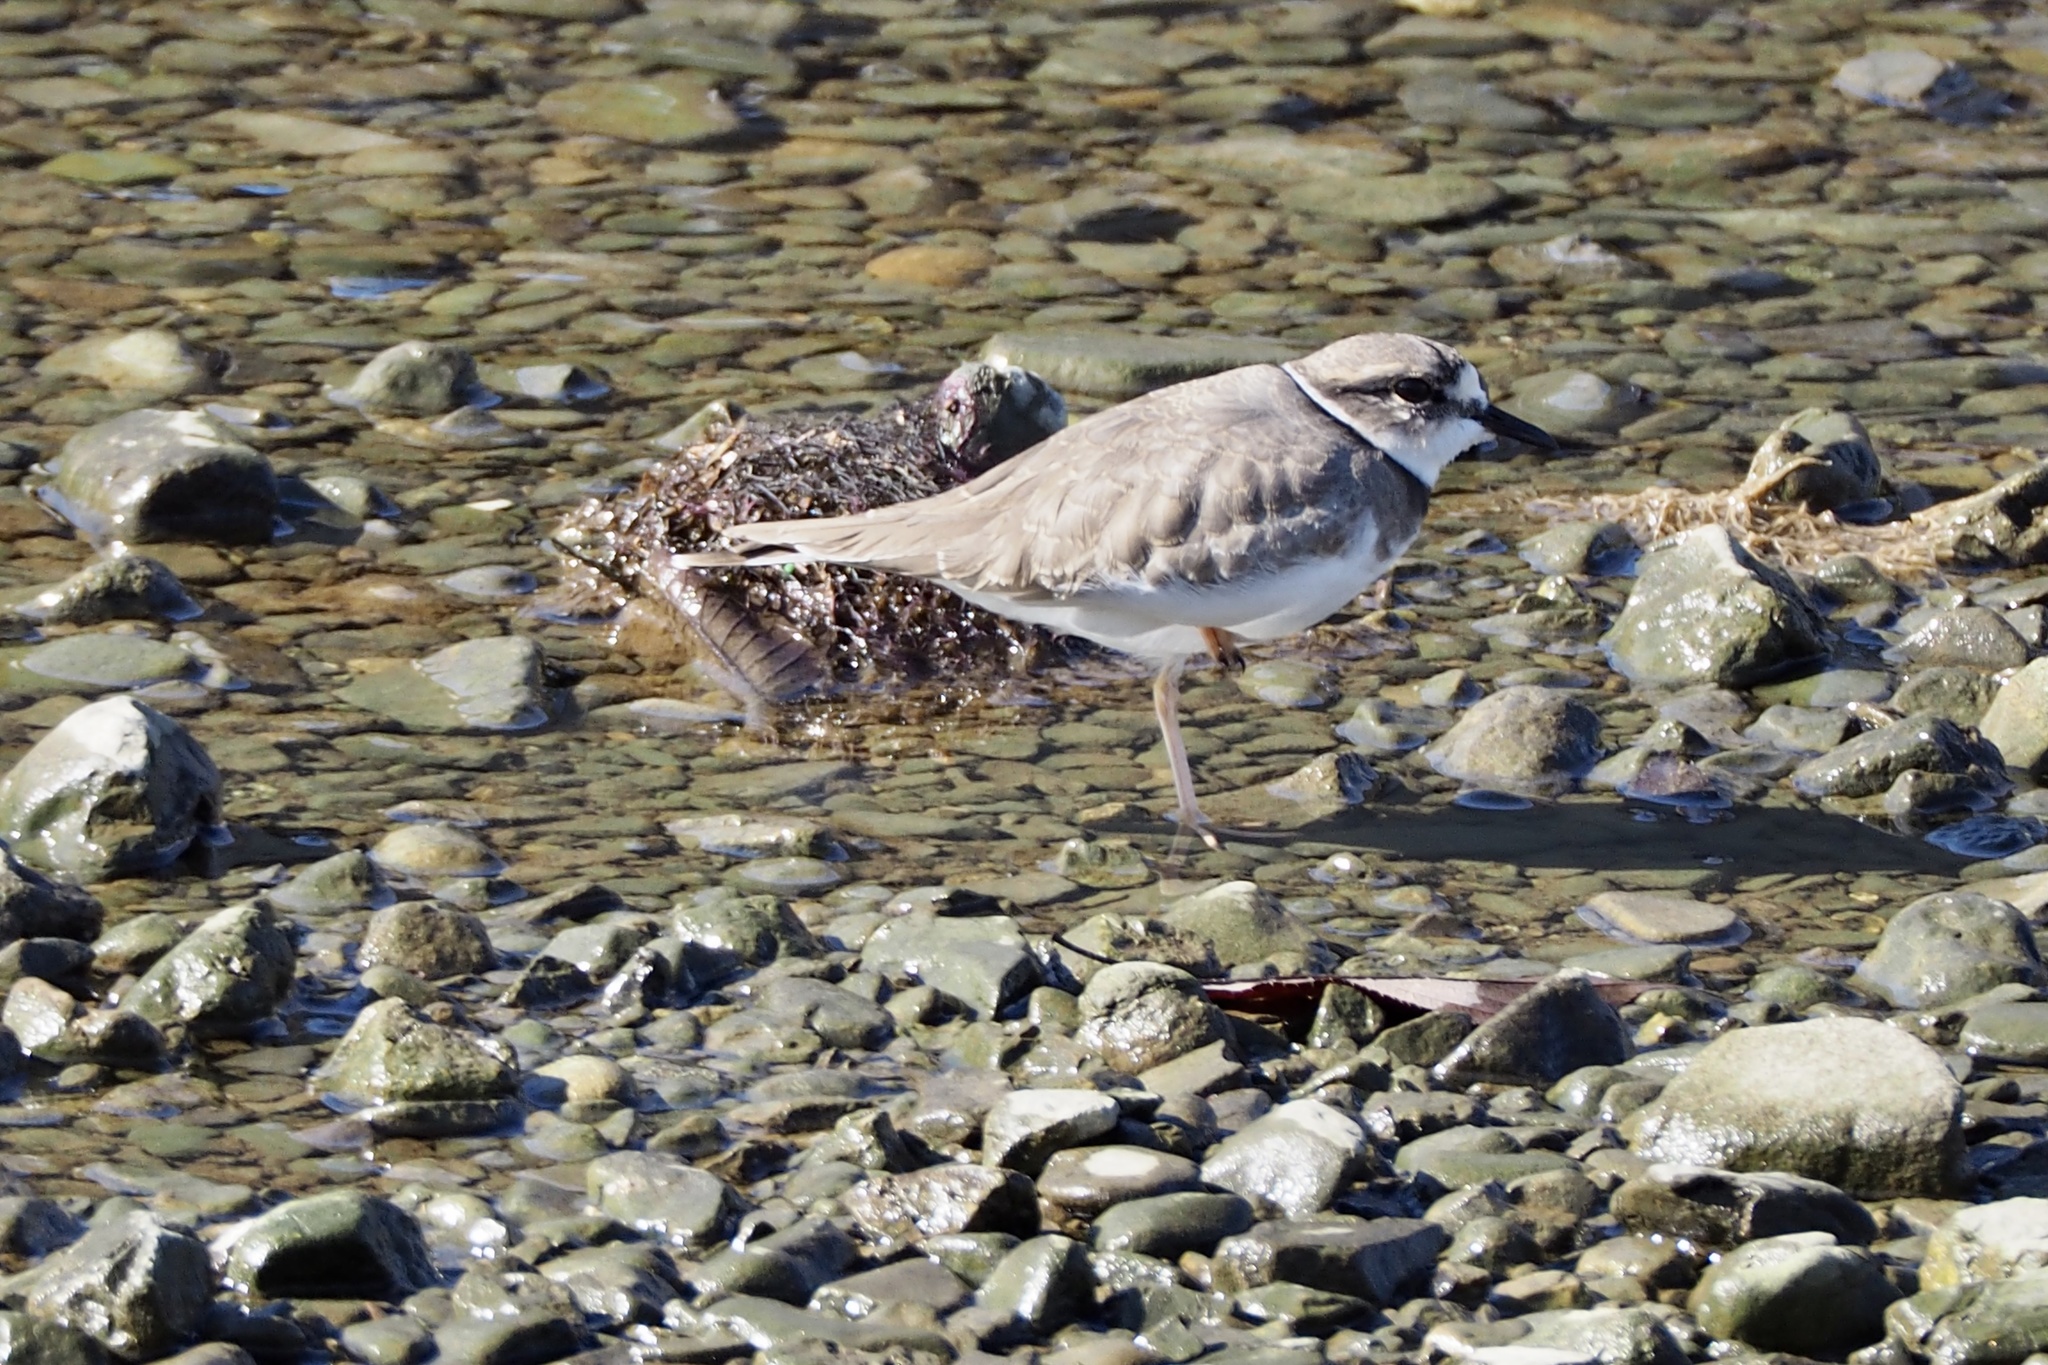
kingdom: Animalia
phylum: Chordata
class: Aves
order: Charadriiformes
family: Charadriidae
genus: Charadrius
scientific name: Charadrius placidus
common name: Long-billed plover
